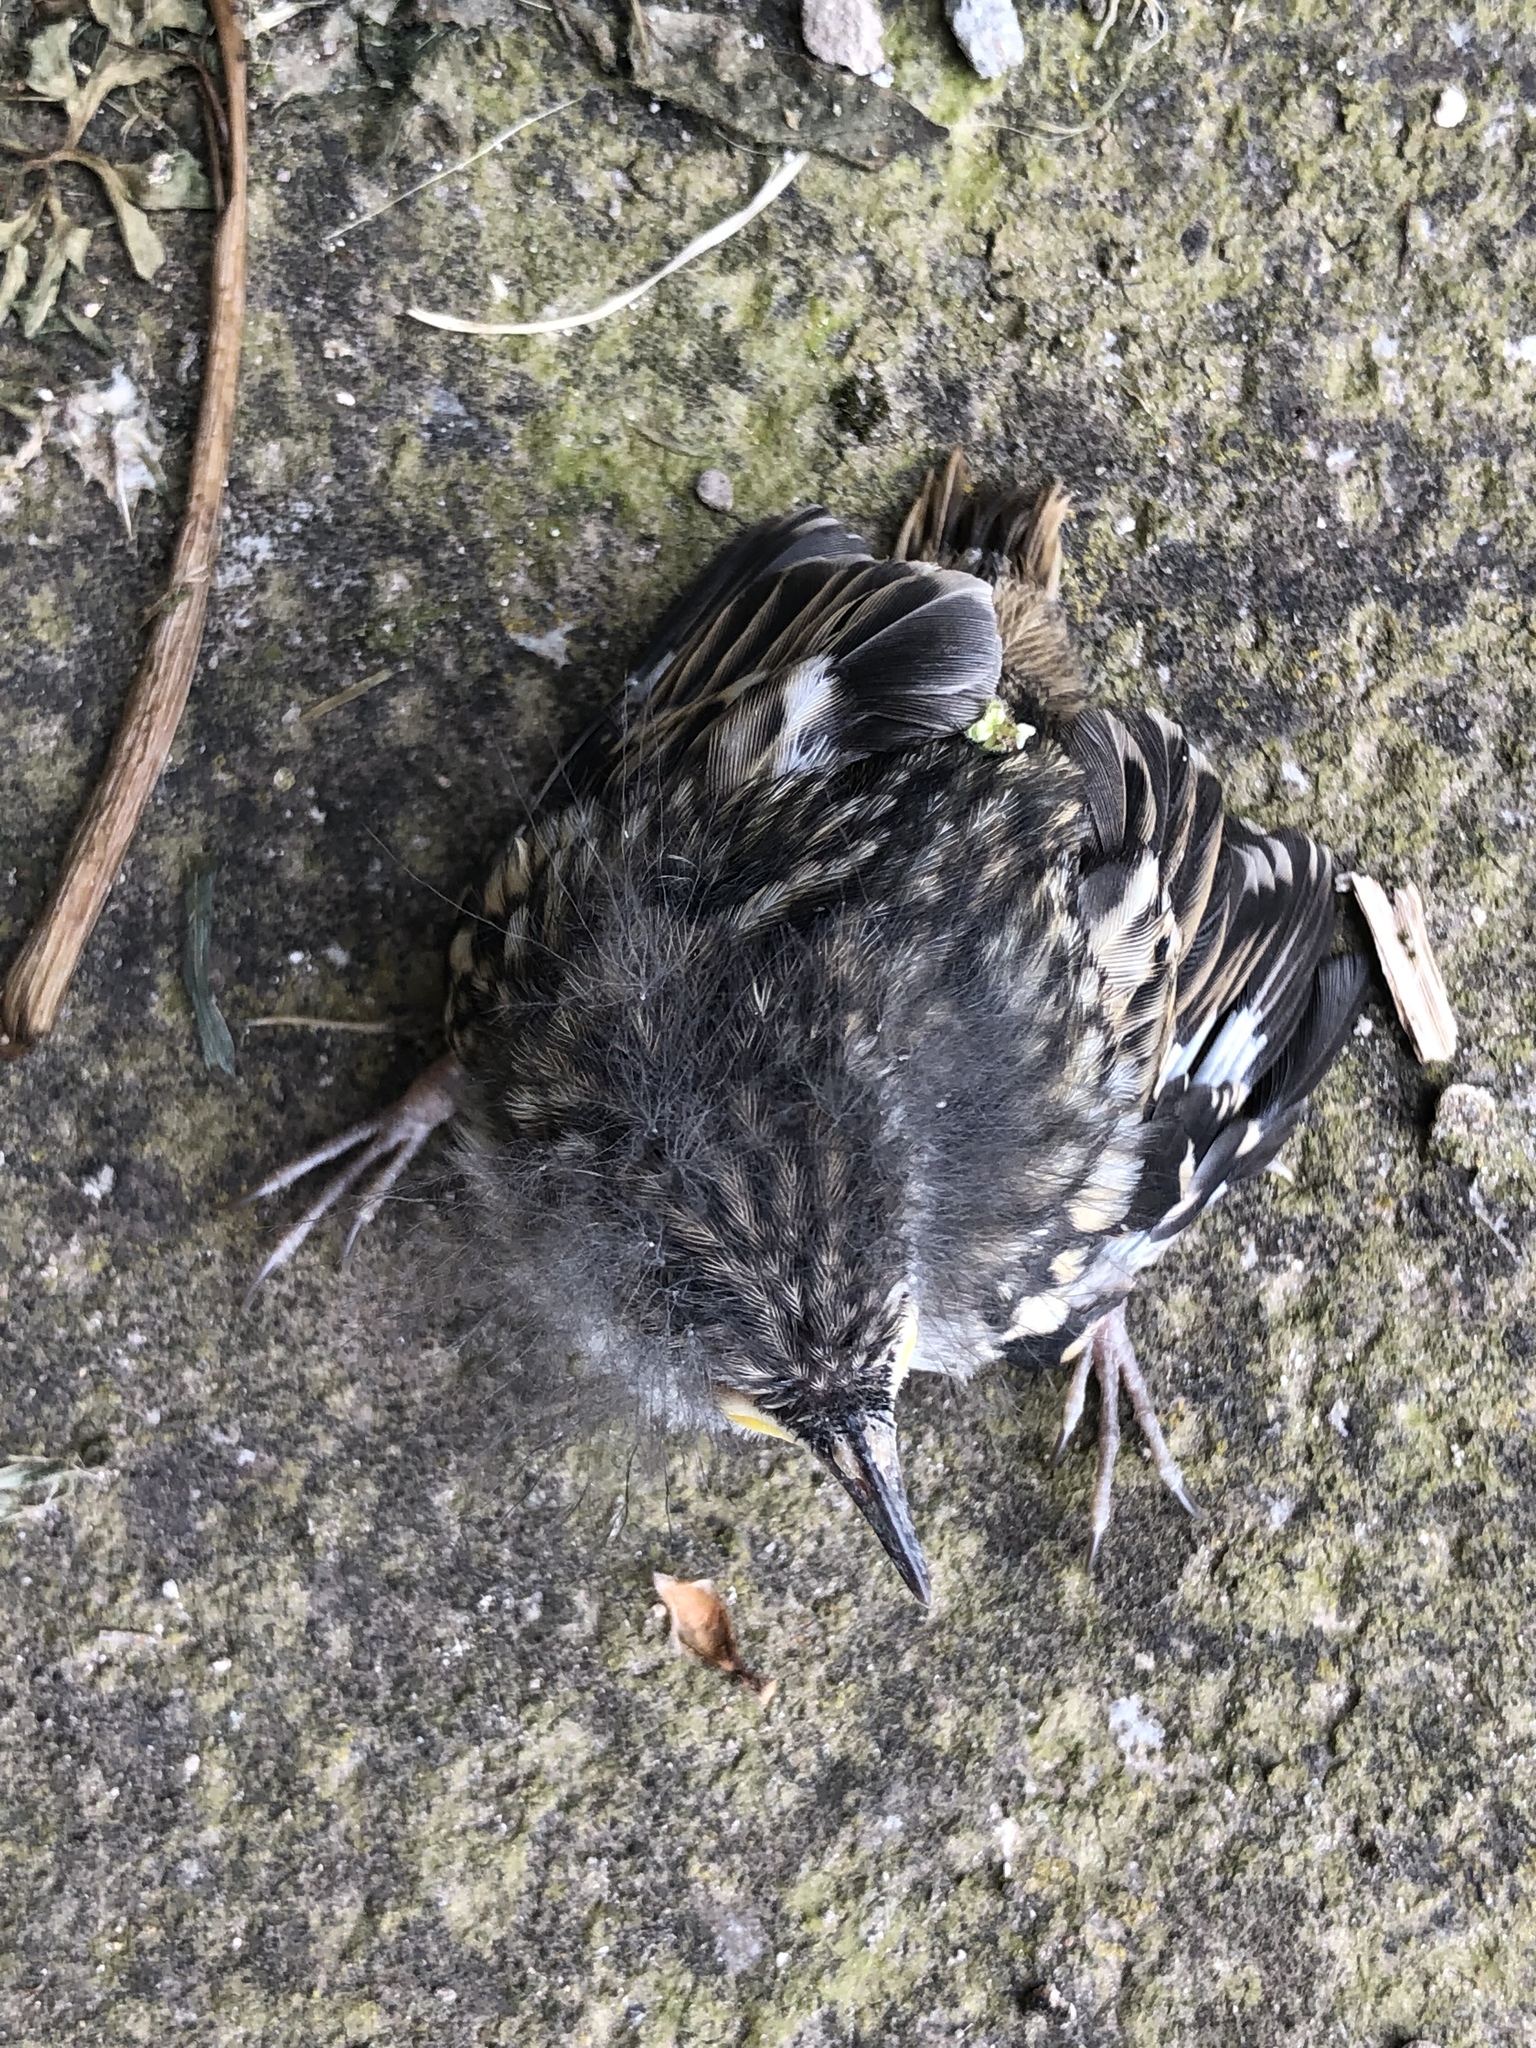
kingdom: Animalia
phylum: Chordata
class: Aves
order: Passeriformes
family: Certhiidae
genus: Certhia
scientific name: Certhia brachydactyla
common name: Short-toed treecreeper
